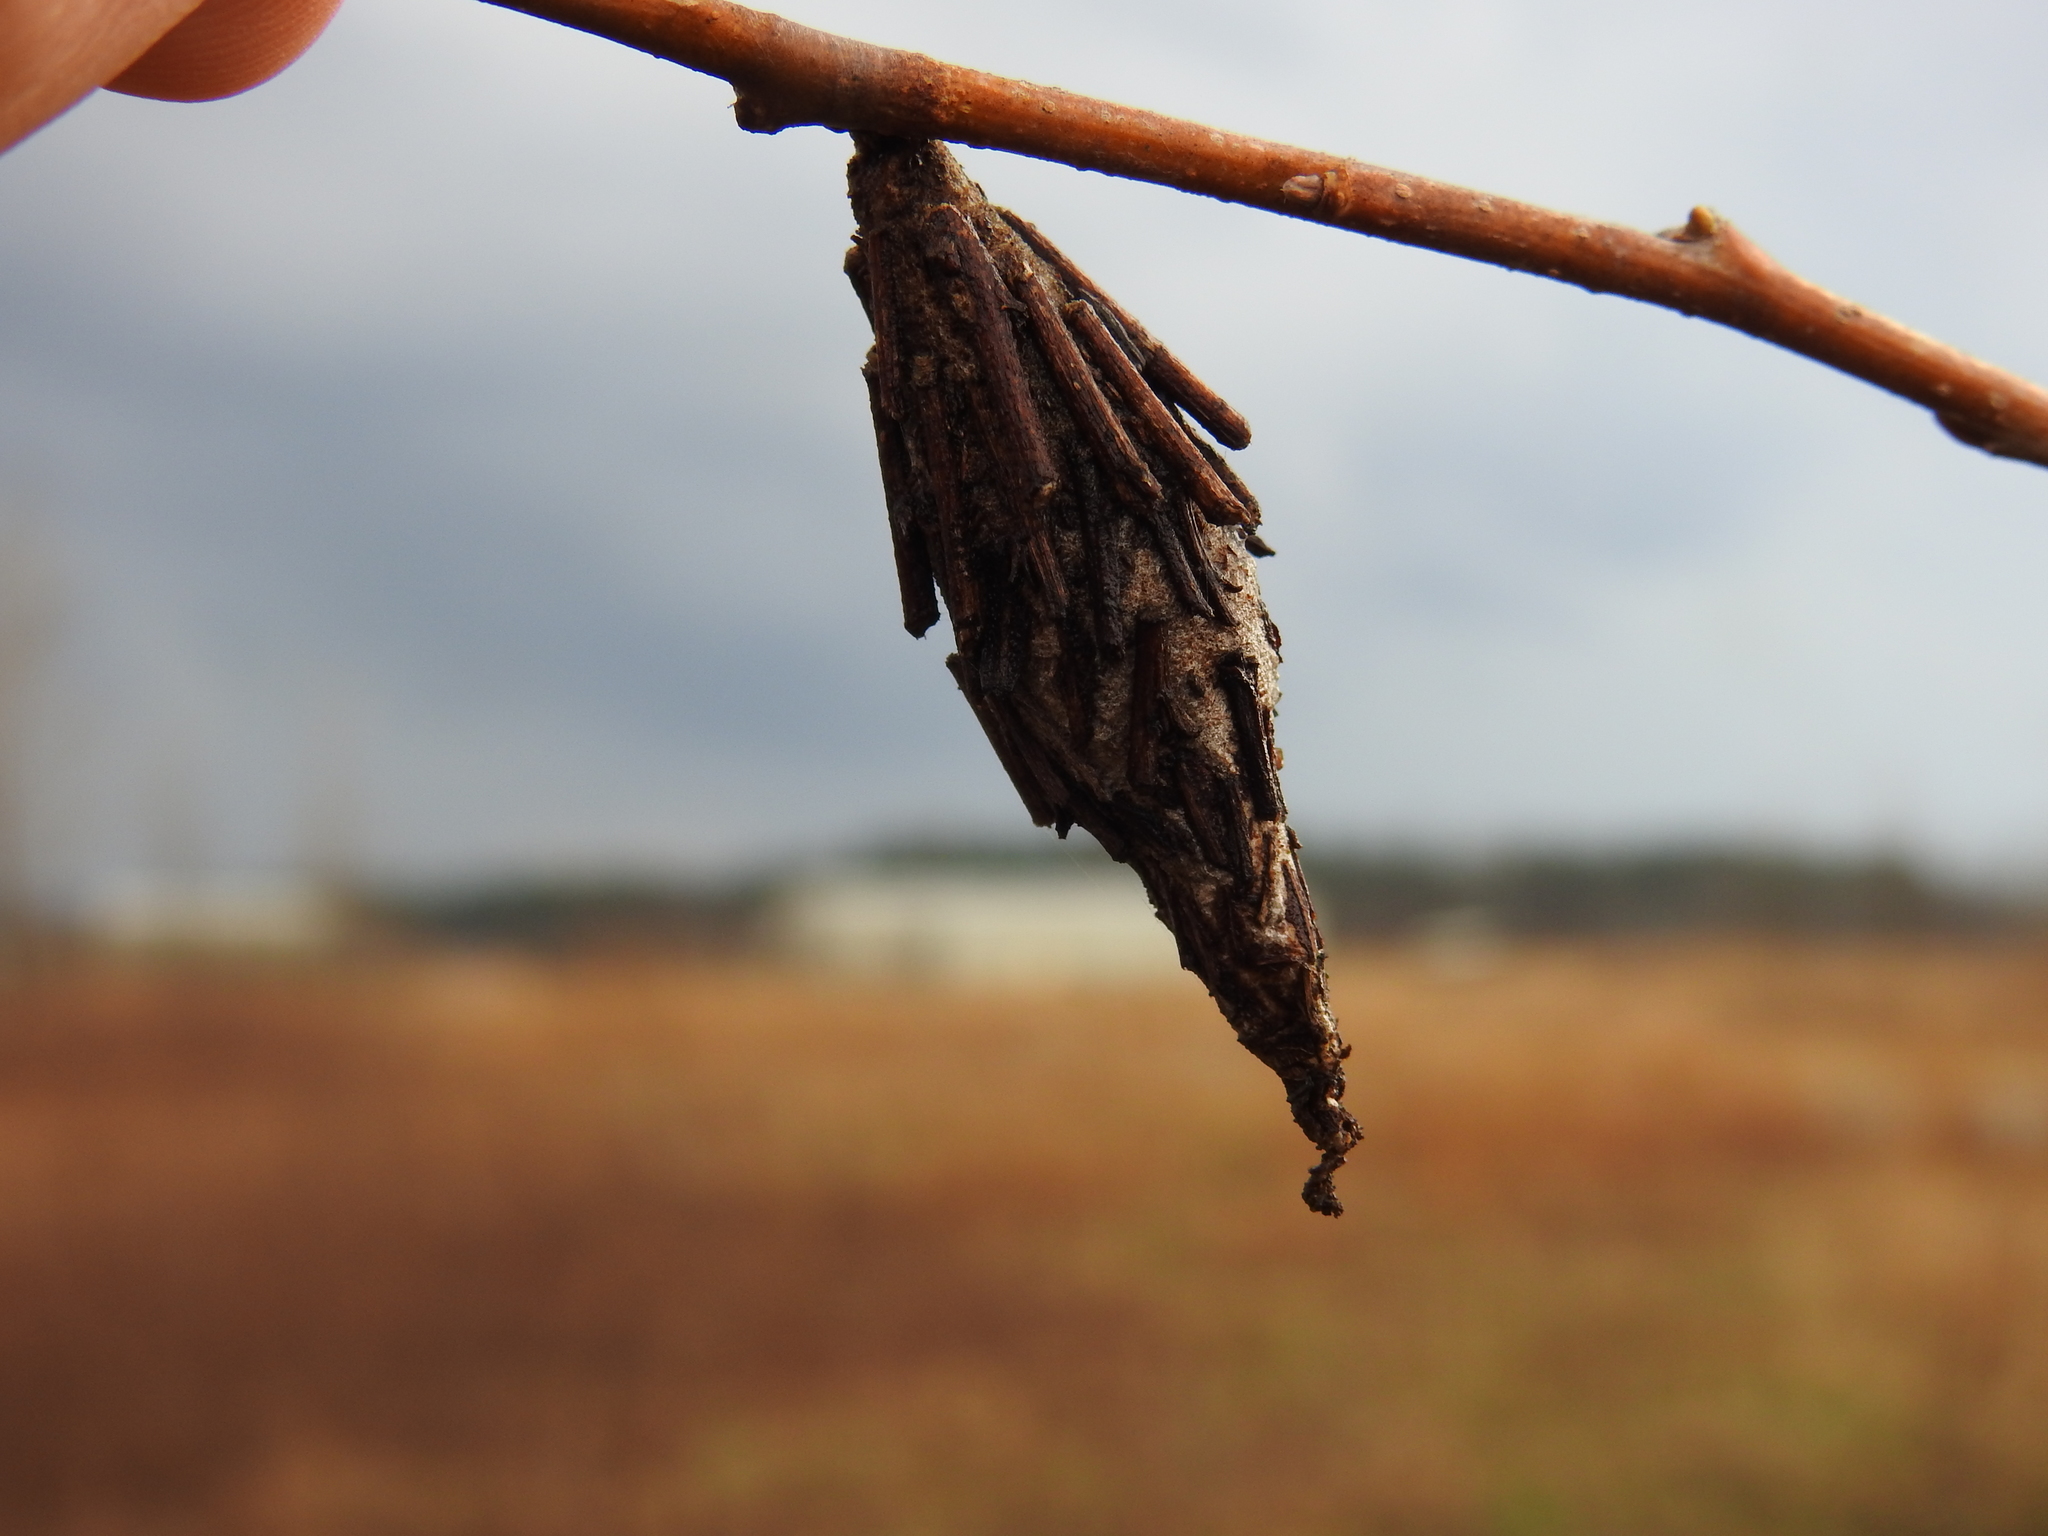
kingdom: Animalia
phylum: Arthropoda
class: Insecta
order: Lepidoptera
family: Psychidae
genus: Thyridopteryx
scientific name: Thyridopteryx ephemeraeformis
